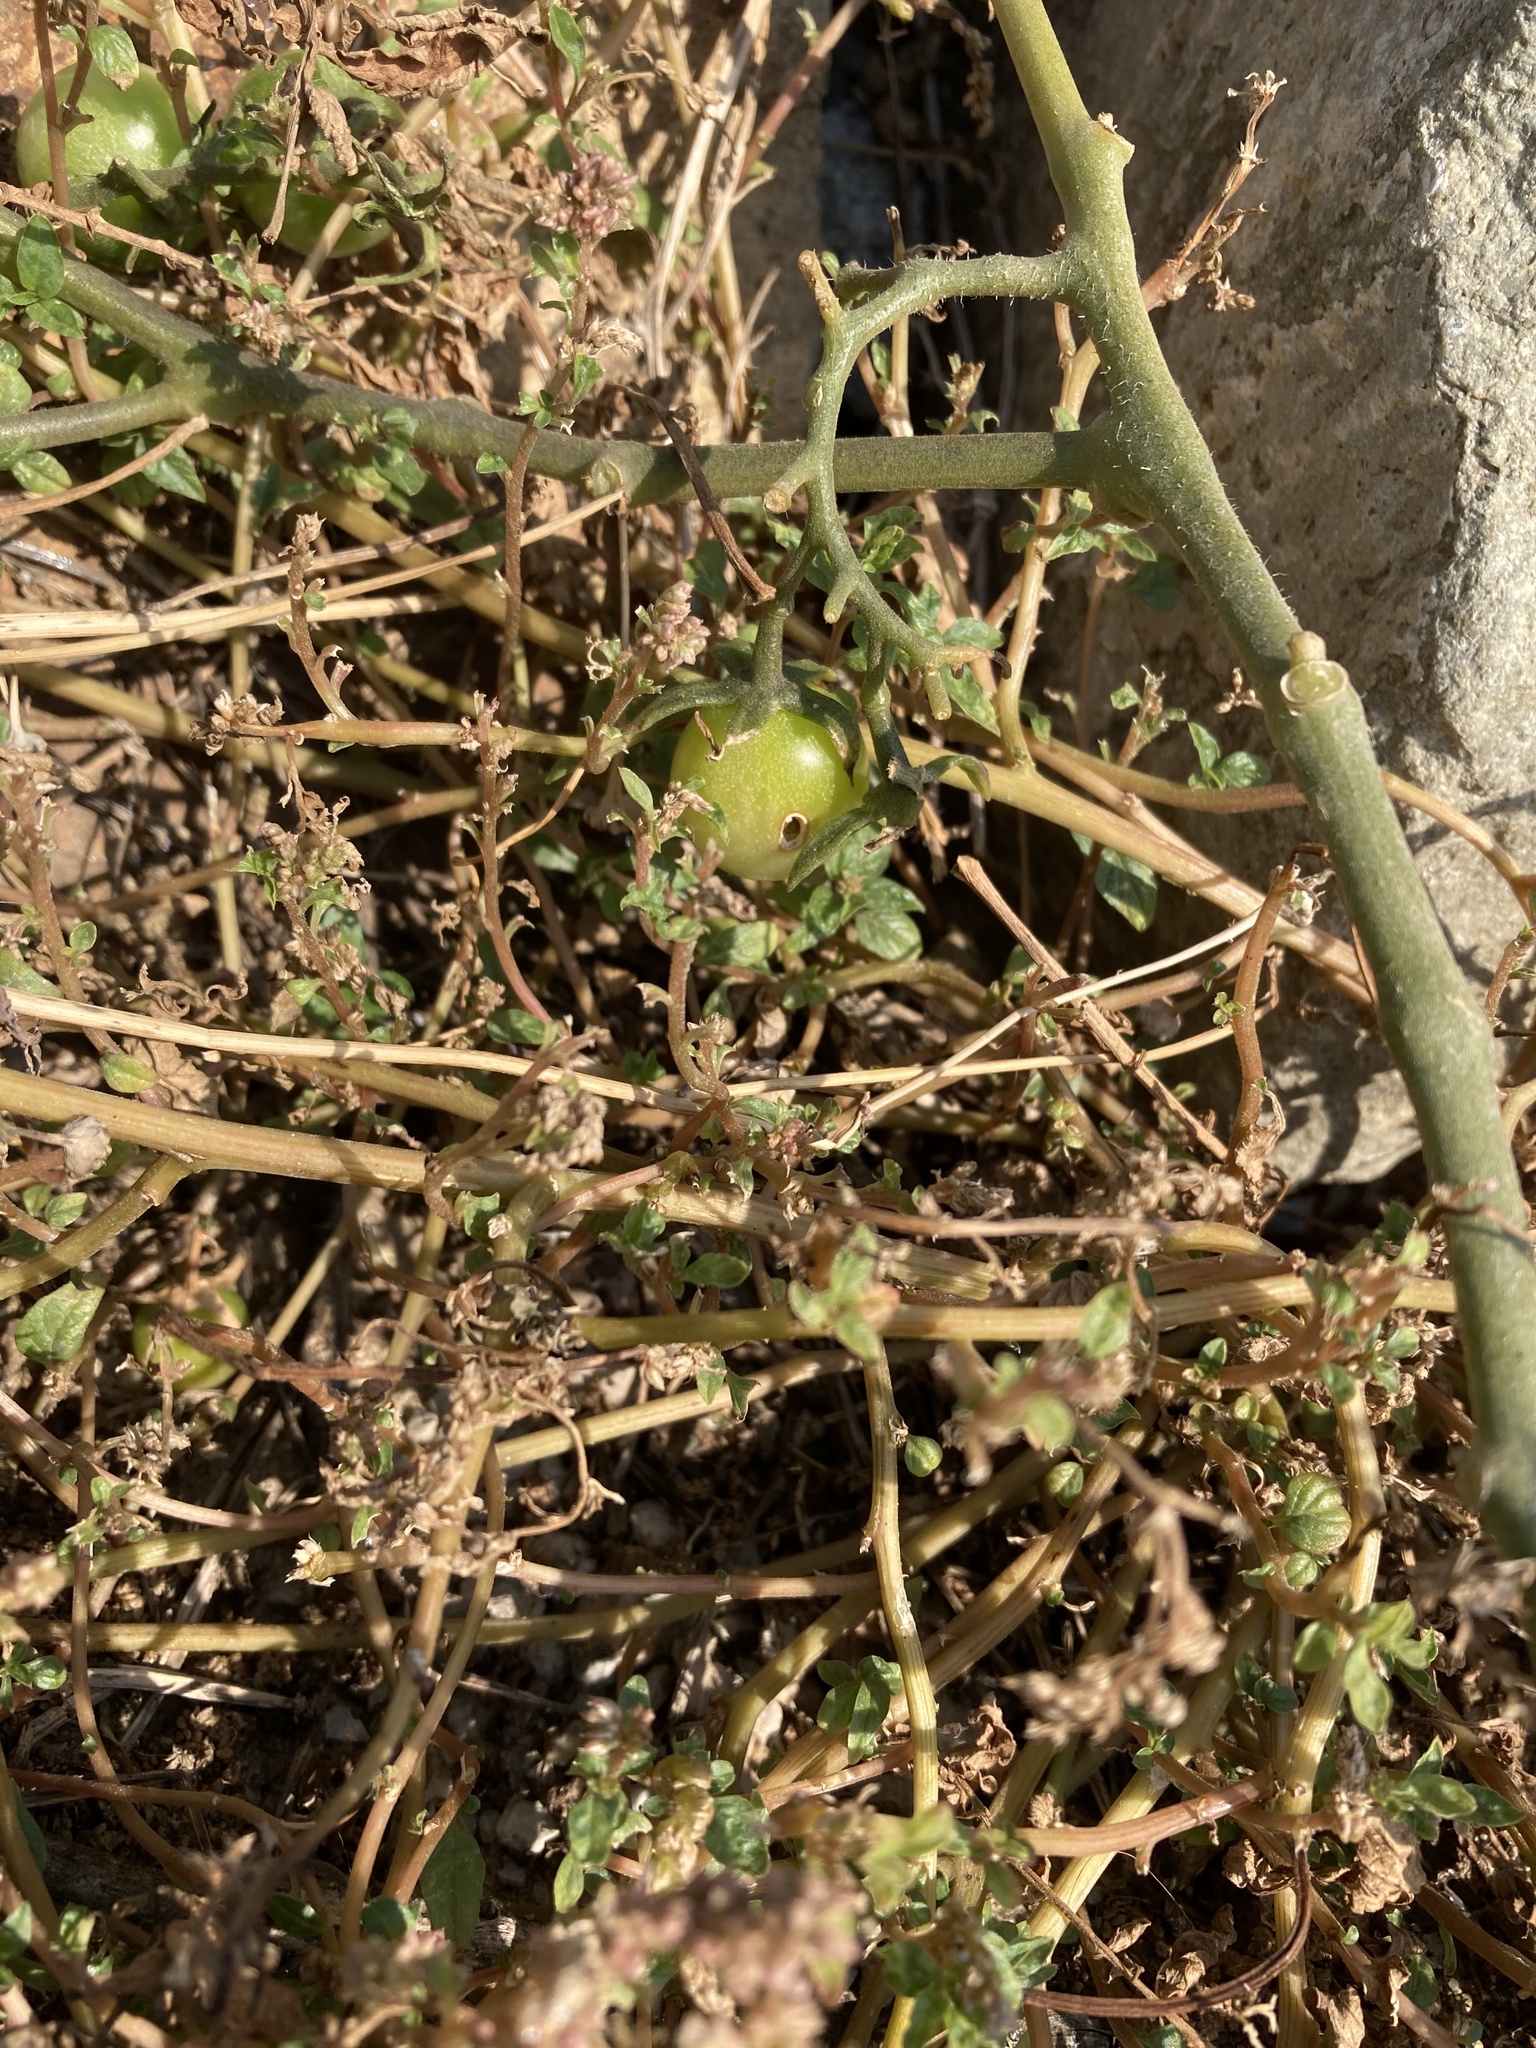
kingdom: Plantae
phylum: Tracheophyta
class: Magnoliopsida
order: Solanales
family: Solanaceae
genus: Solanum
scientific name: Solanum lycopersicum
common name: Garden tomato
